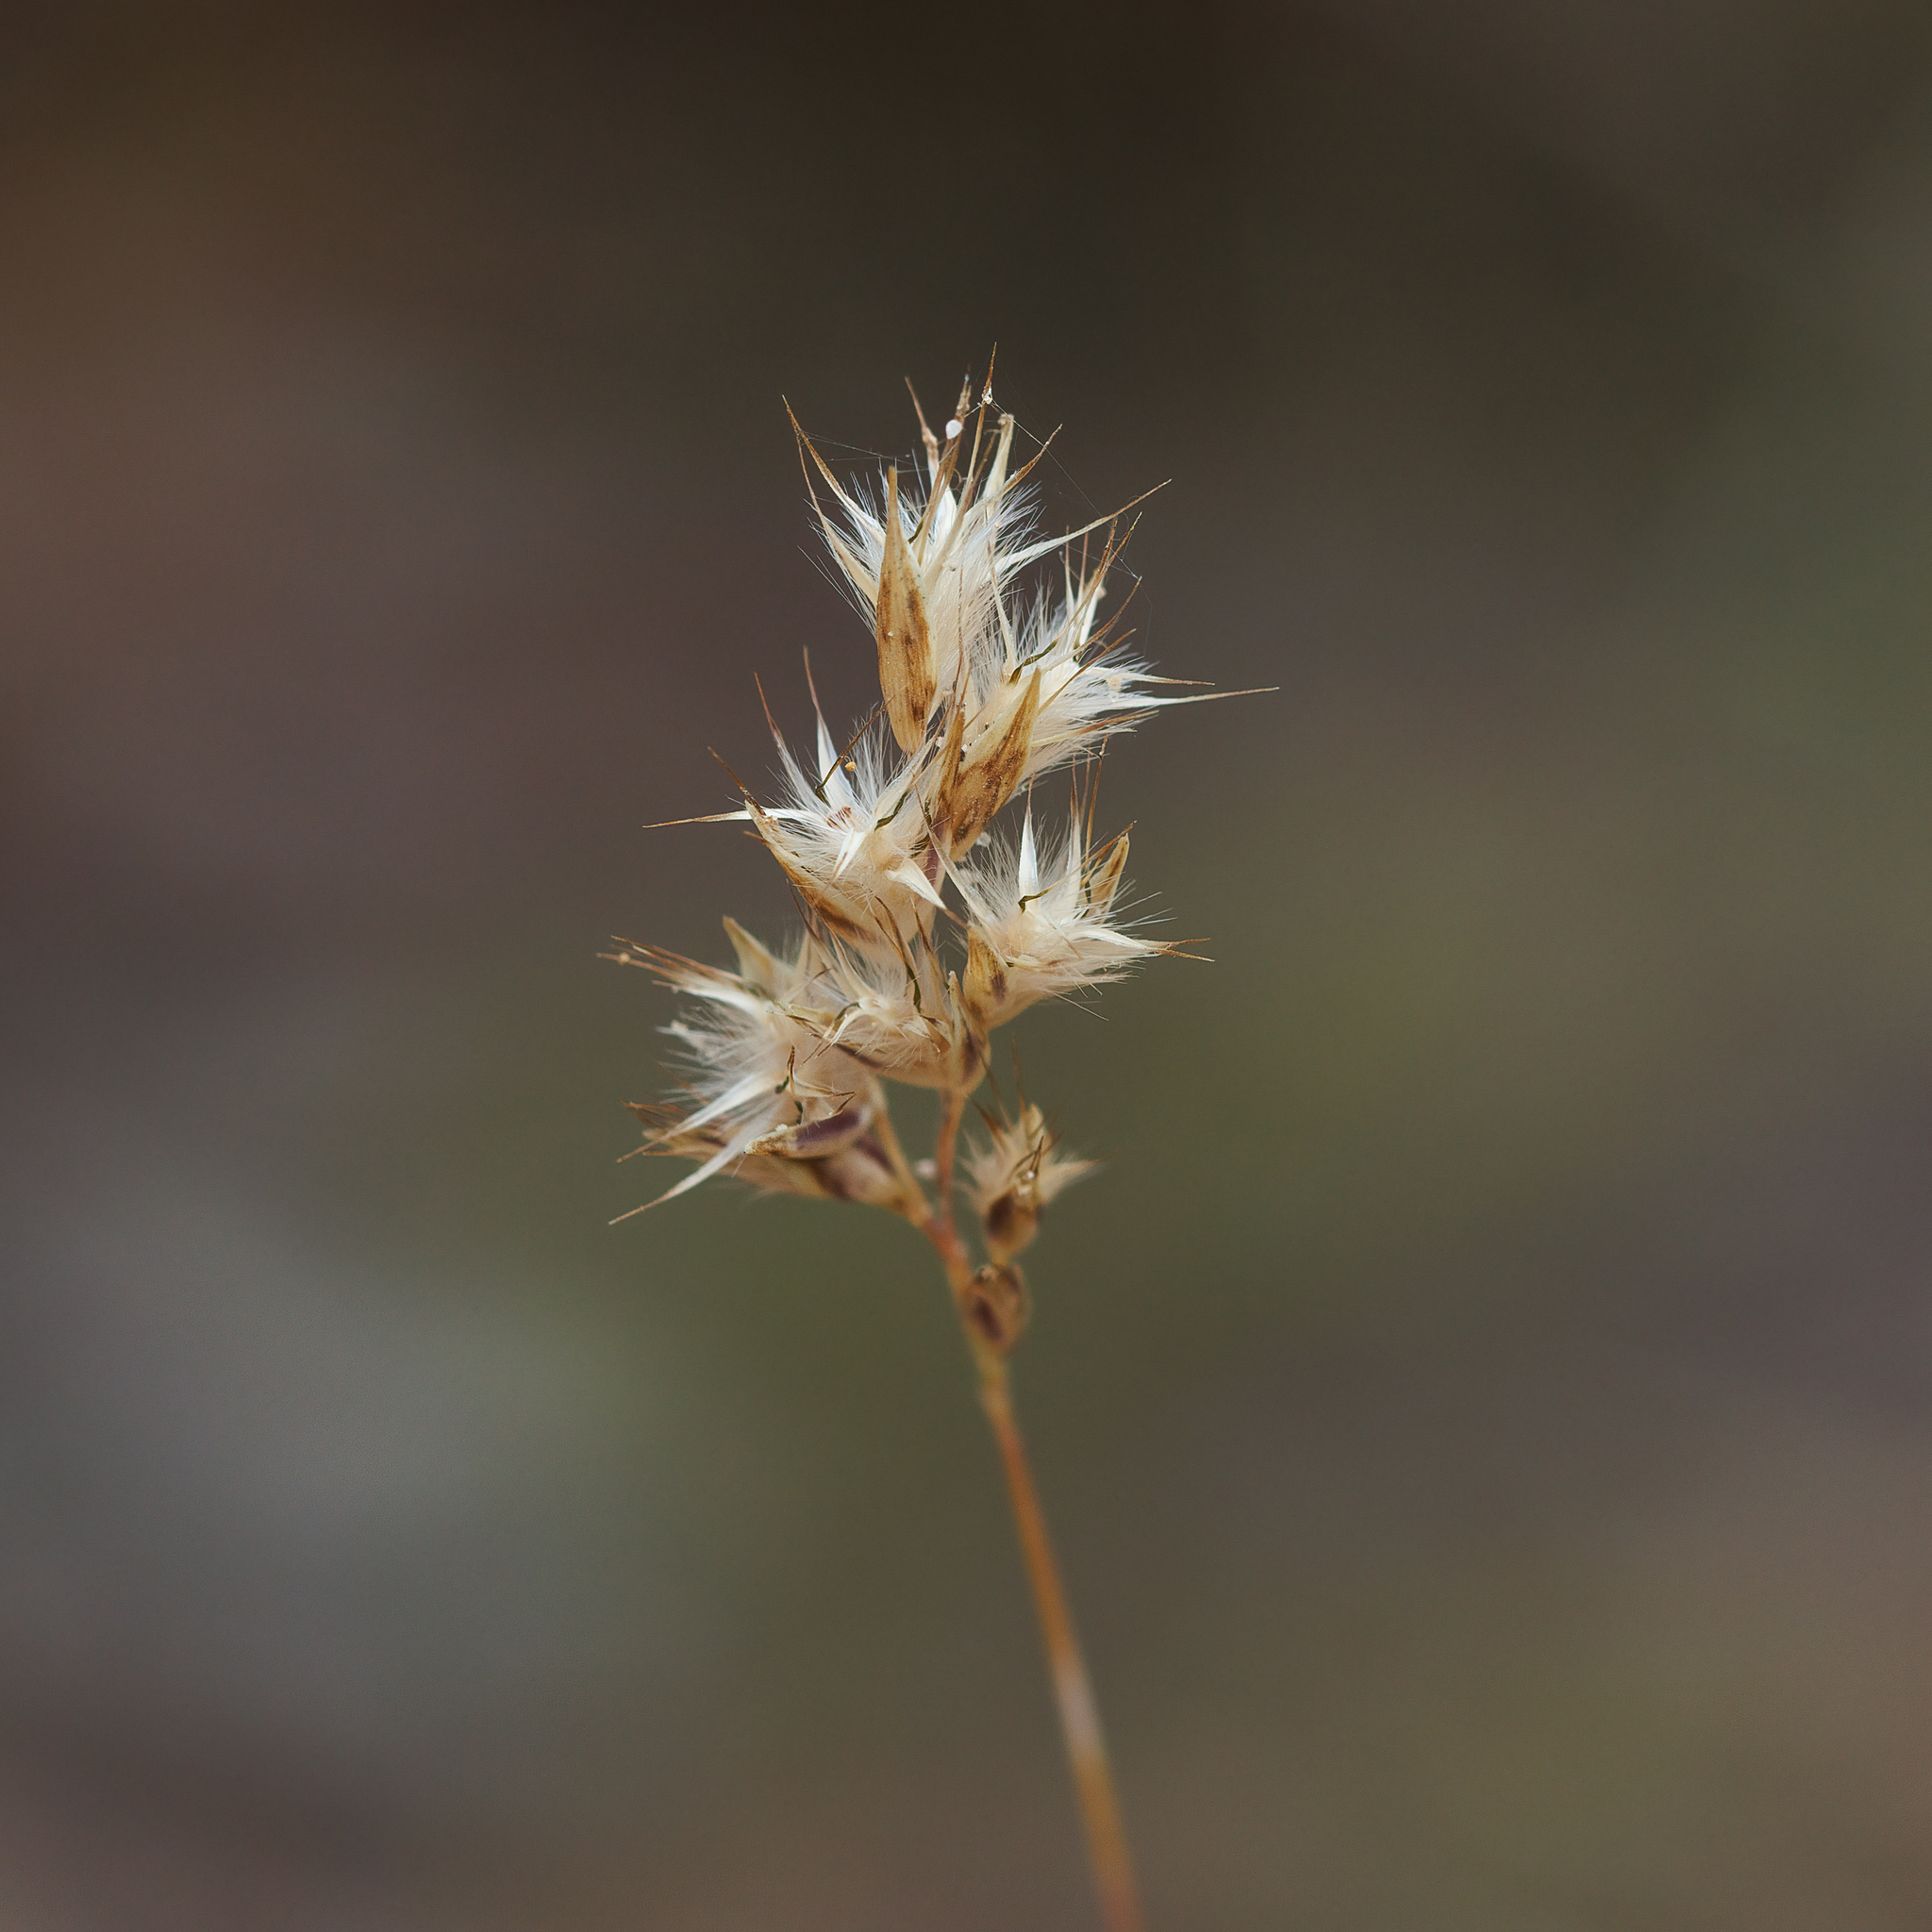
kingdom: Plantae
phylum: Tracheophyta
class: Liliopsida
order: Poales
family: Poaceae
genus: Rytidosperma
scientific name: Rytidosperma geniculatum
